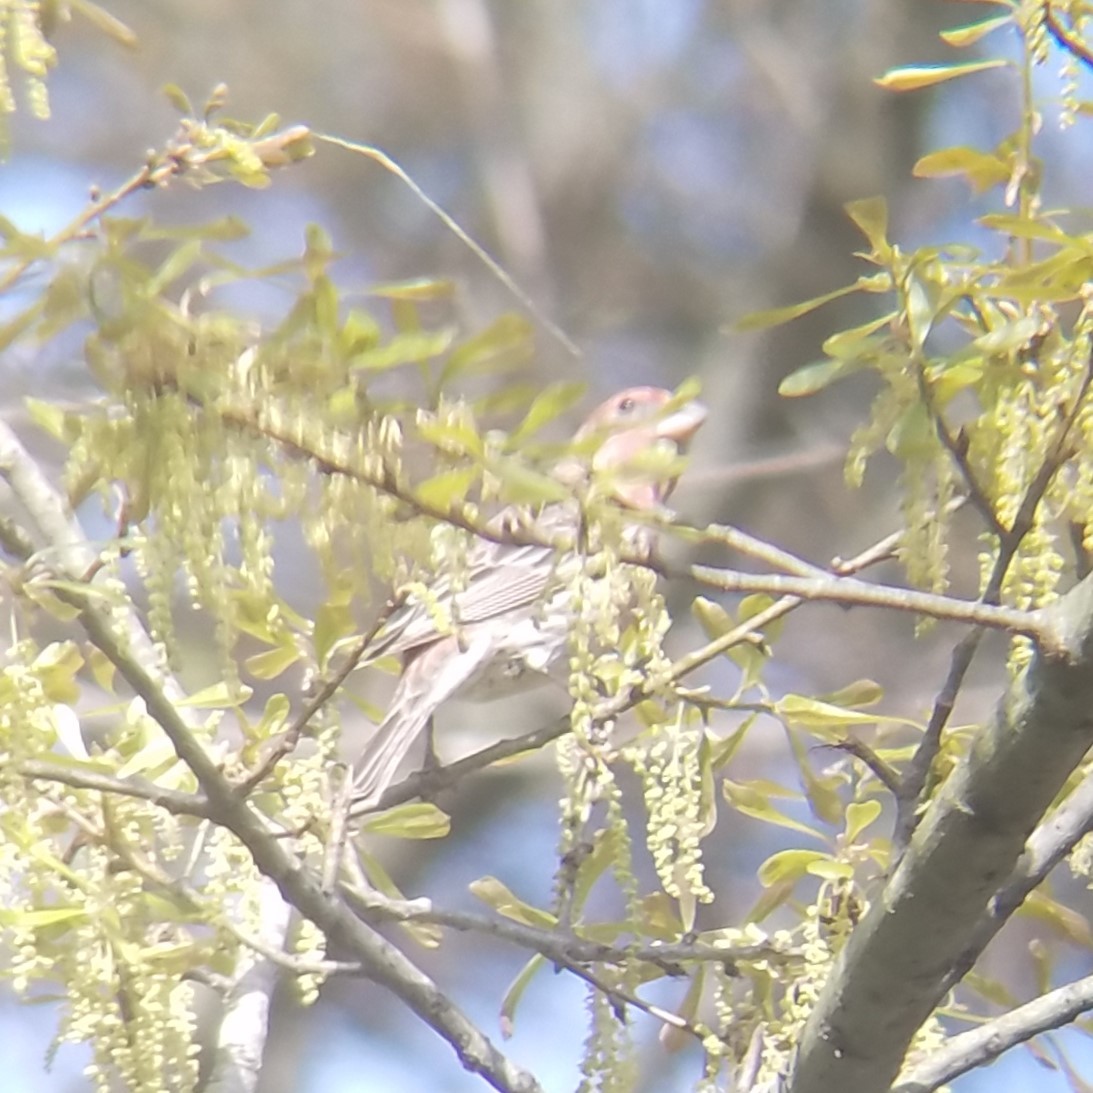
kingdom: Animalia
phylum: Chordata
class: Aves
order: Passeriformes
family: Fringillidae
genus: Haemorhous
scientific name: Haemorhous mexicanus
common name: House finch
